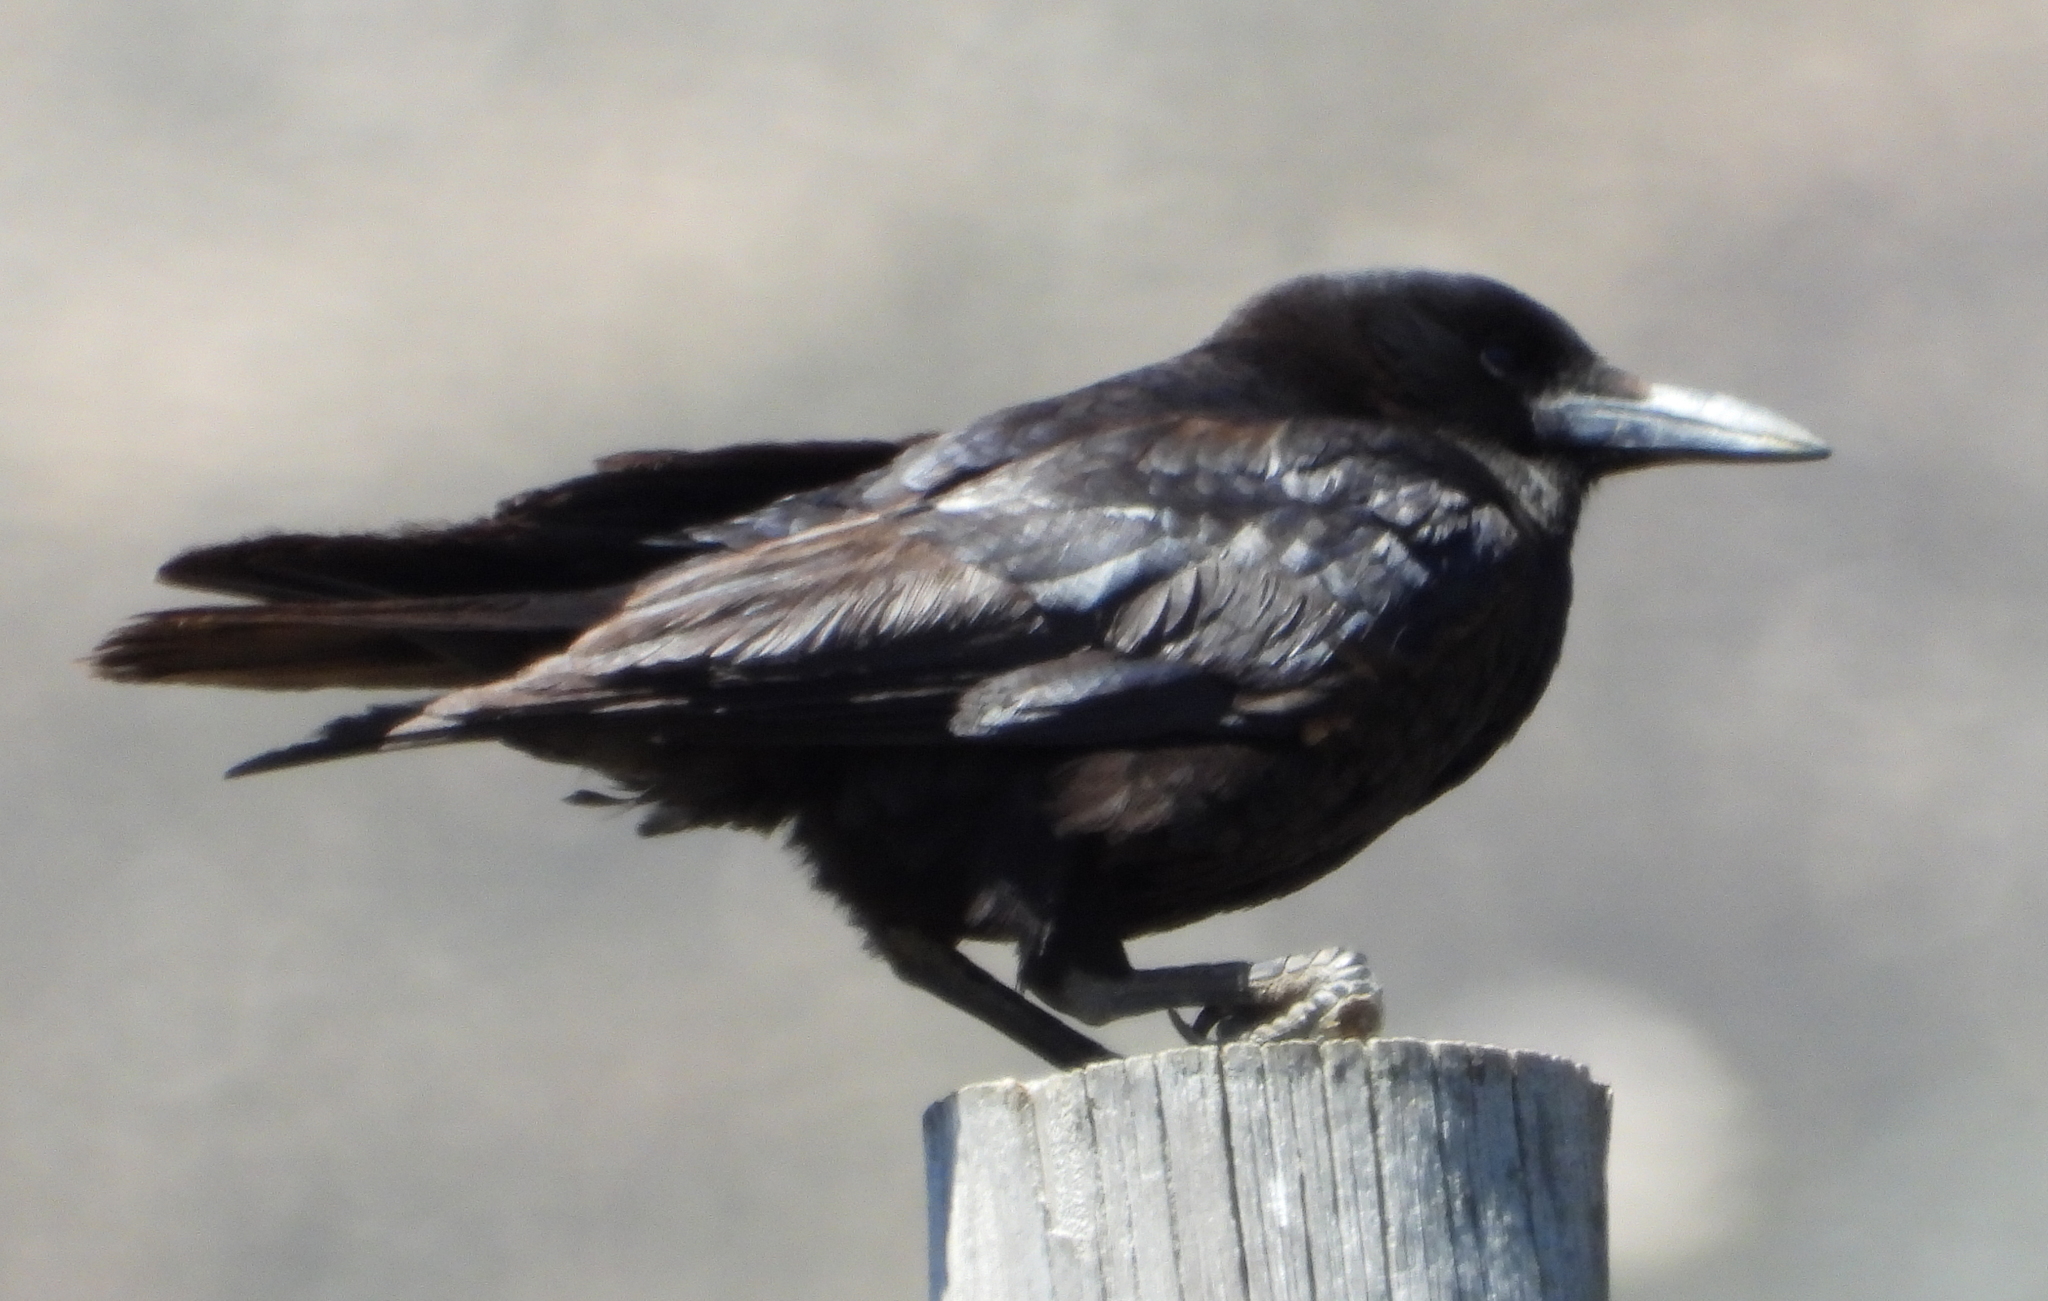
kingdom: Animalia
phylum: Chordata
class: Aves
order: Passeriformes
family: Corvidae
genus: Corvus
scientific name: Corvus capensis
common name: Cape crow
